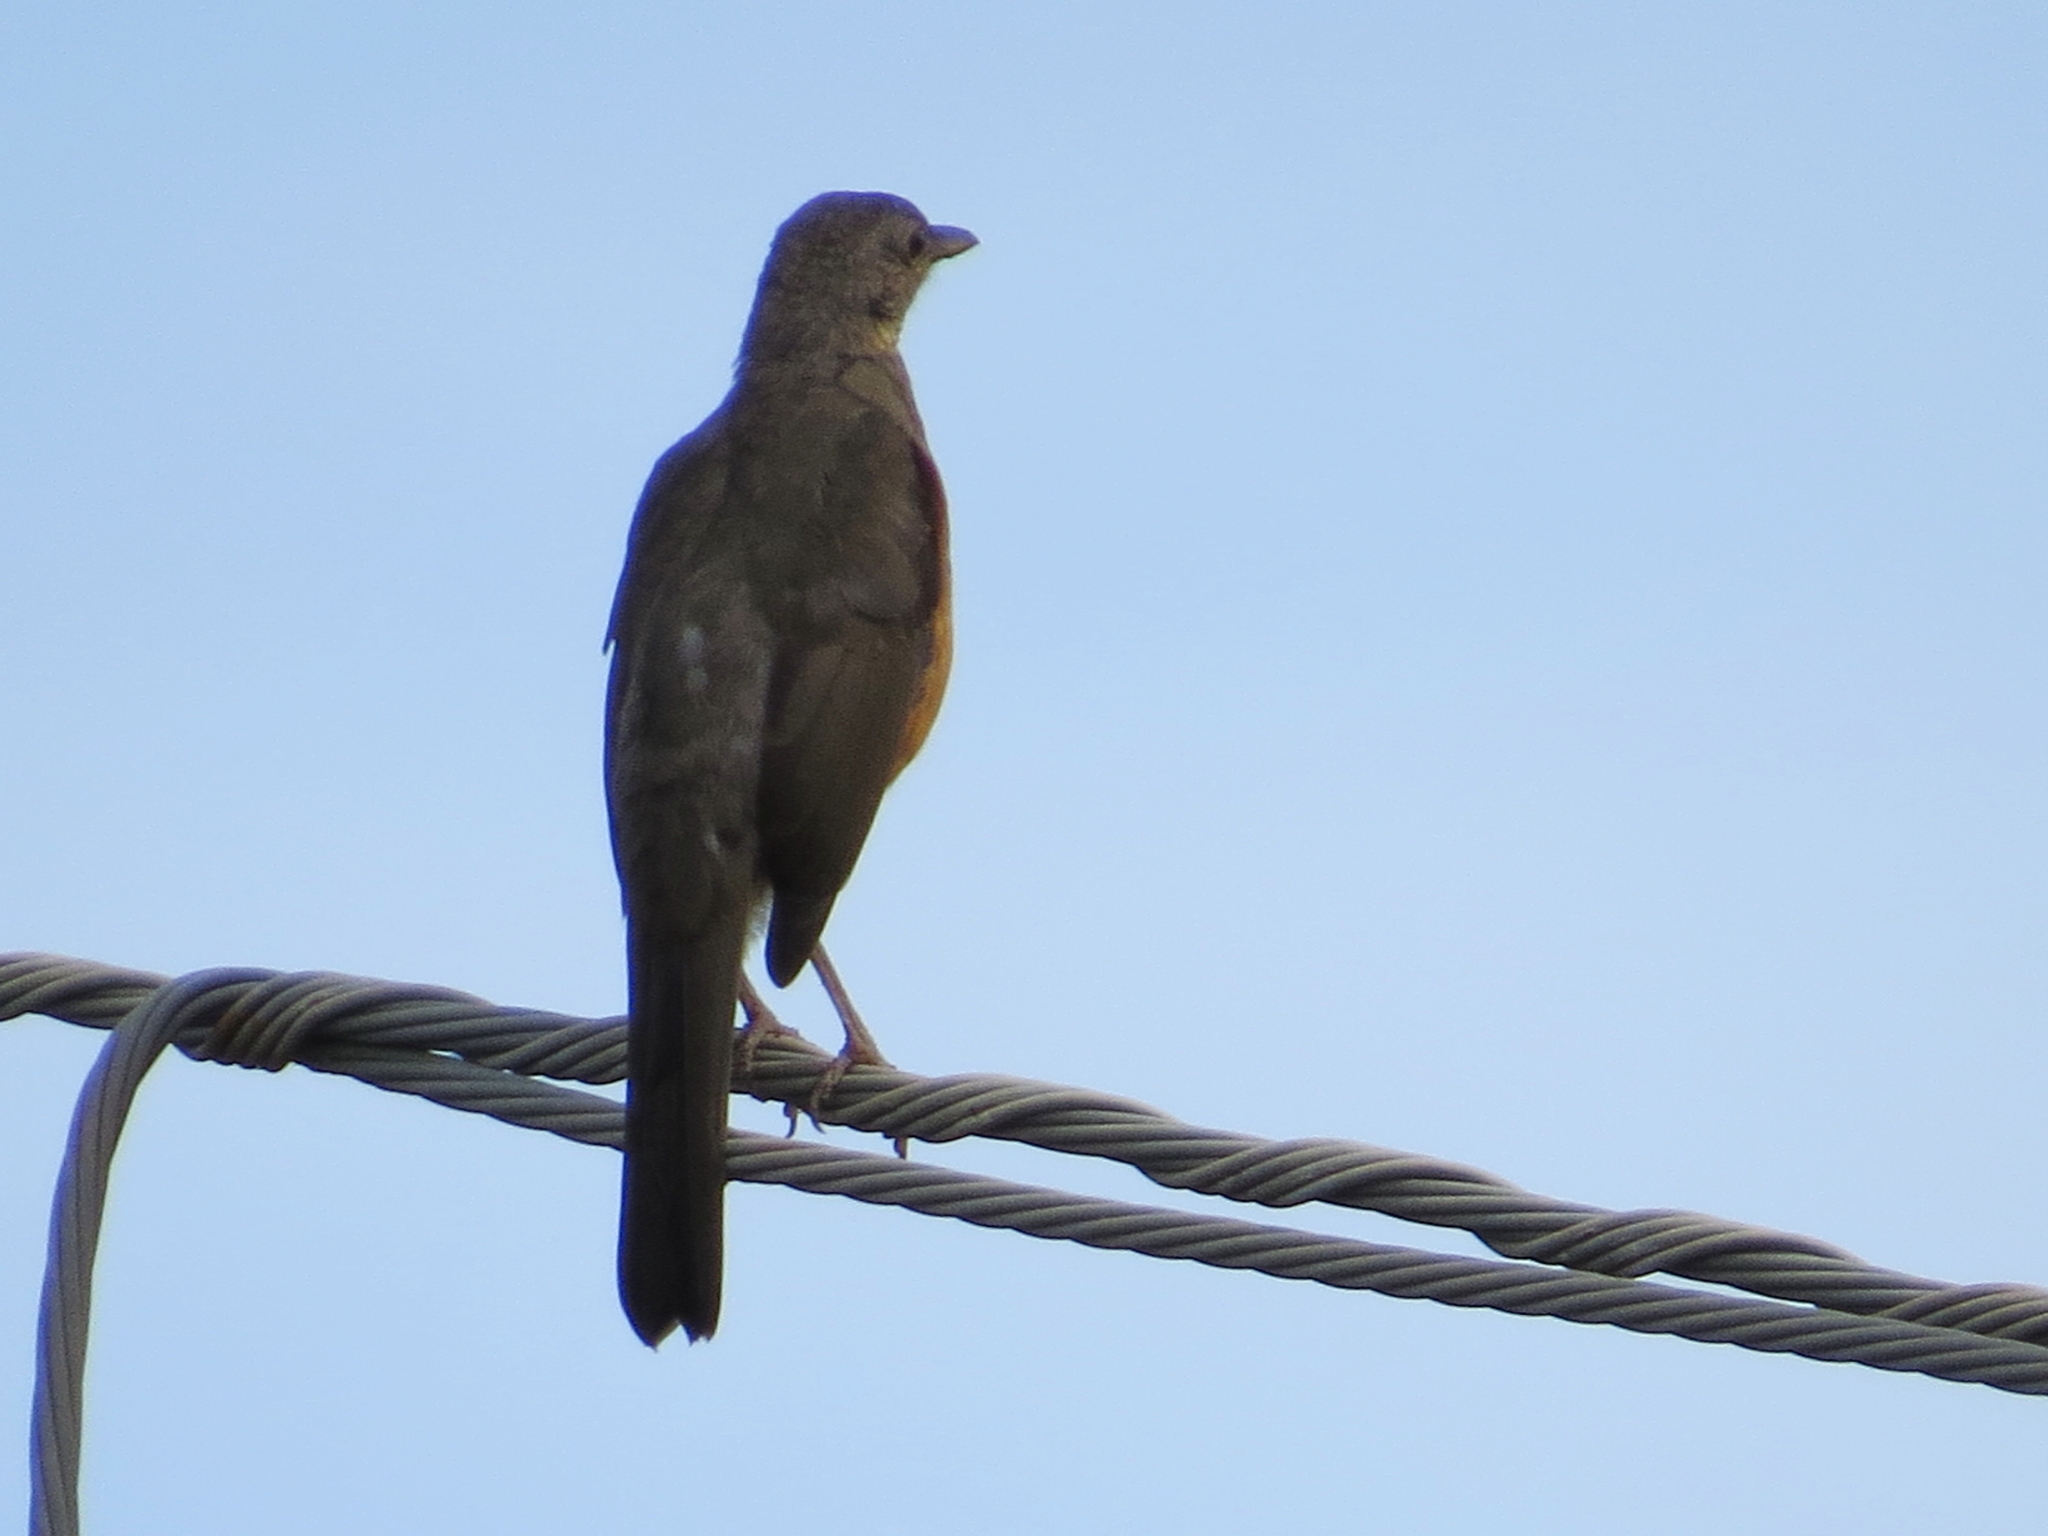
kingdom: Animalia
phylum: Chordata
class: Aves
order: Passeriformes
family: Turdidae
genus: Turdus
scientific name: Turdus rufiventris
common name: Rufous-bellied thrush
